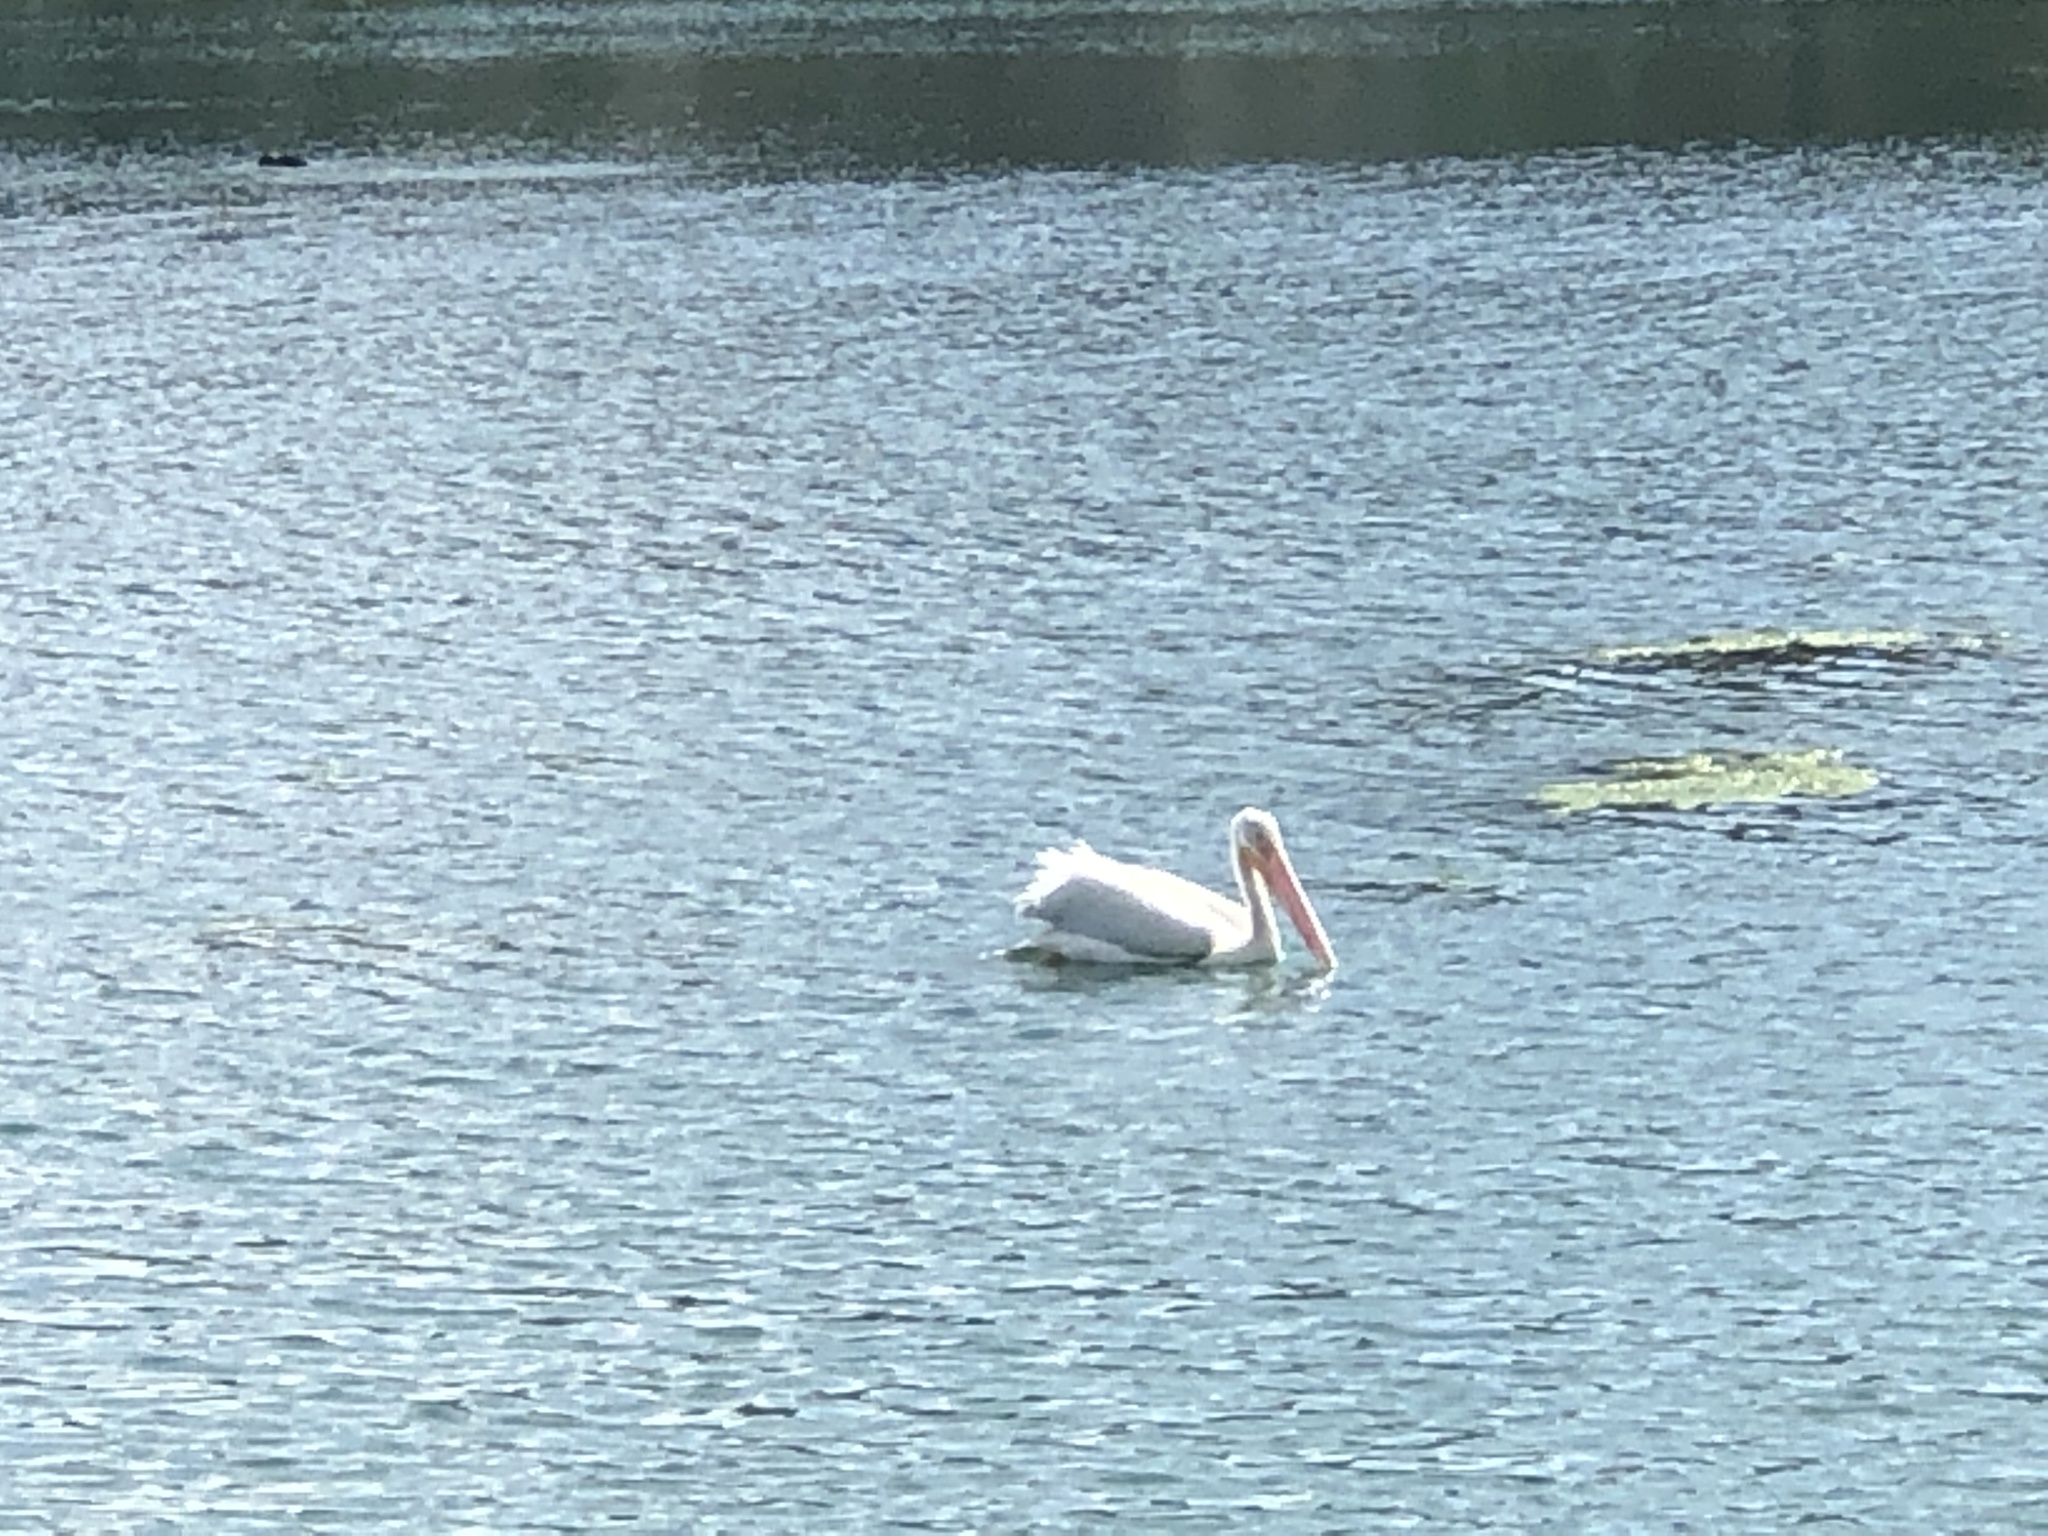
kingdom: Animalia
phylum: Chordata
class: Aves
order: Pelecaniformes
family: Pelecanidae
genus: Pelecanus
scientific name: Pelecanus erythrorhynchos
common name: American white pelican
